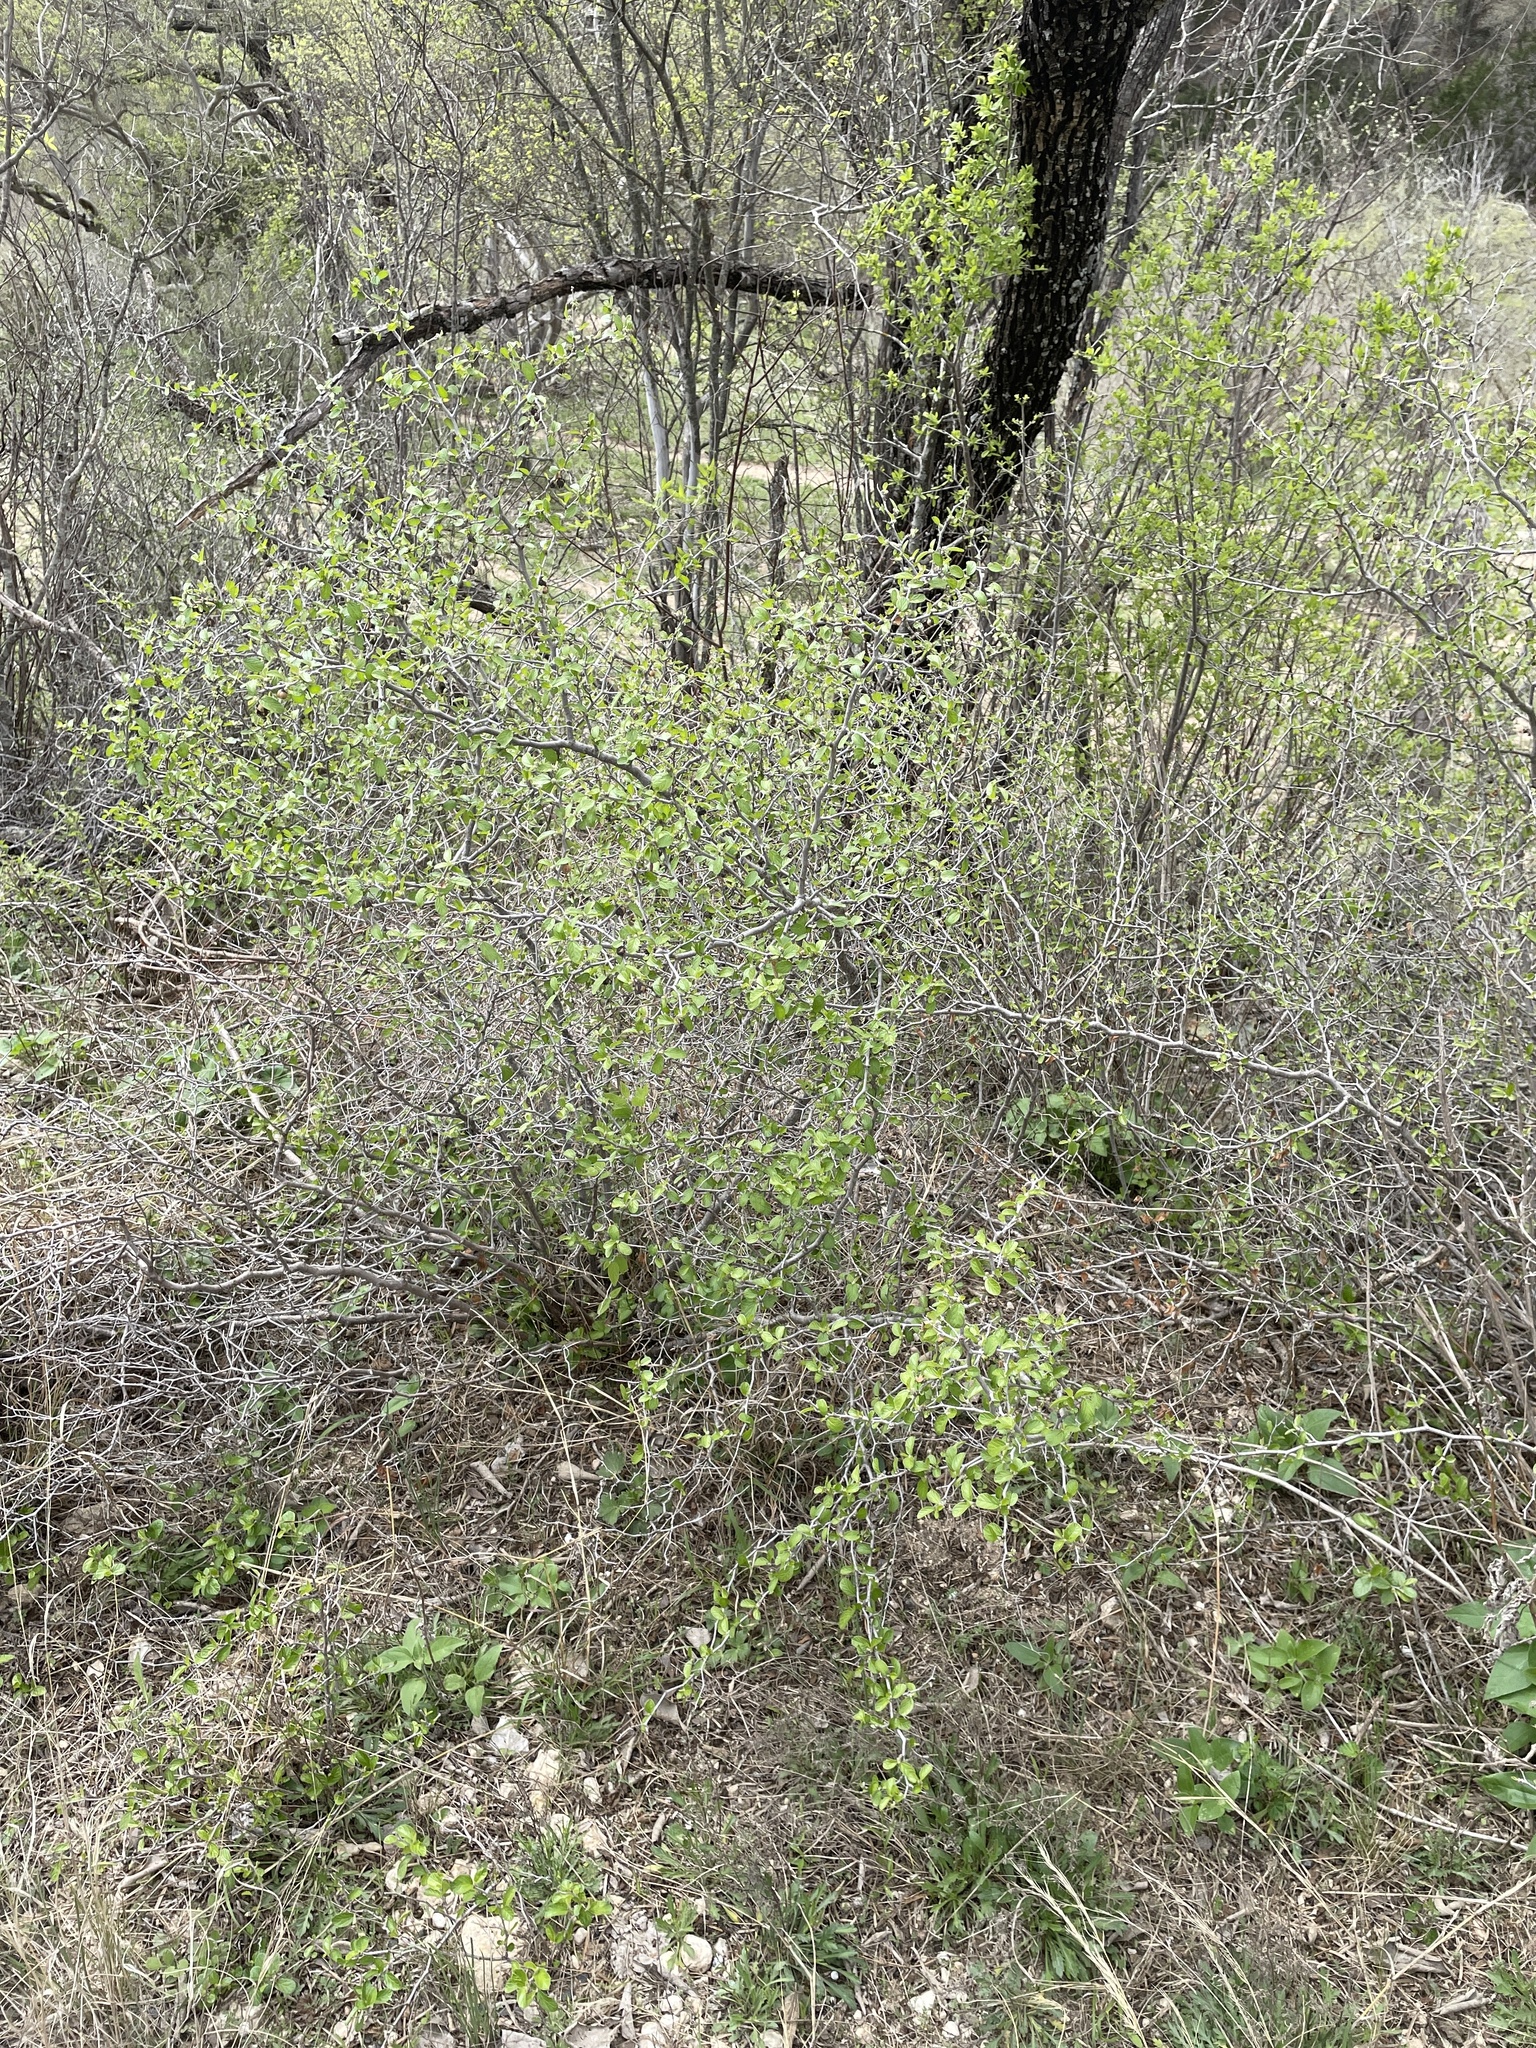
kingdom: Plantae
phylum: Tracheophyta
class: Magnoliopsida
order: Rosales
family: Rhamnaceae
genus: Colubrina
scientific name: Colubrina texensis
